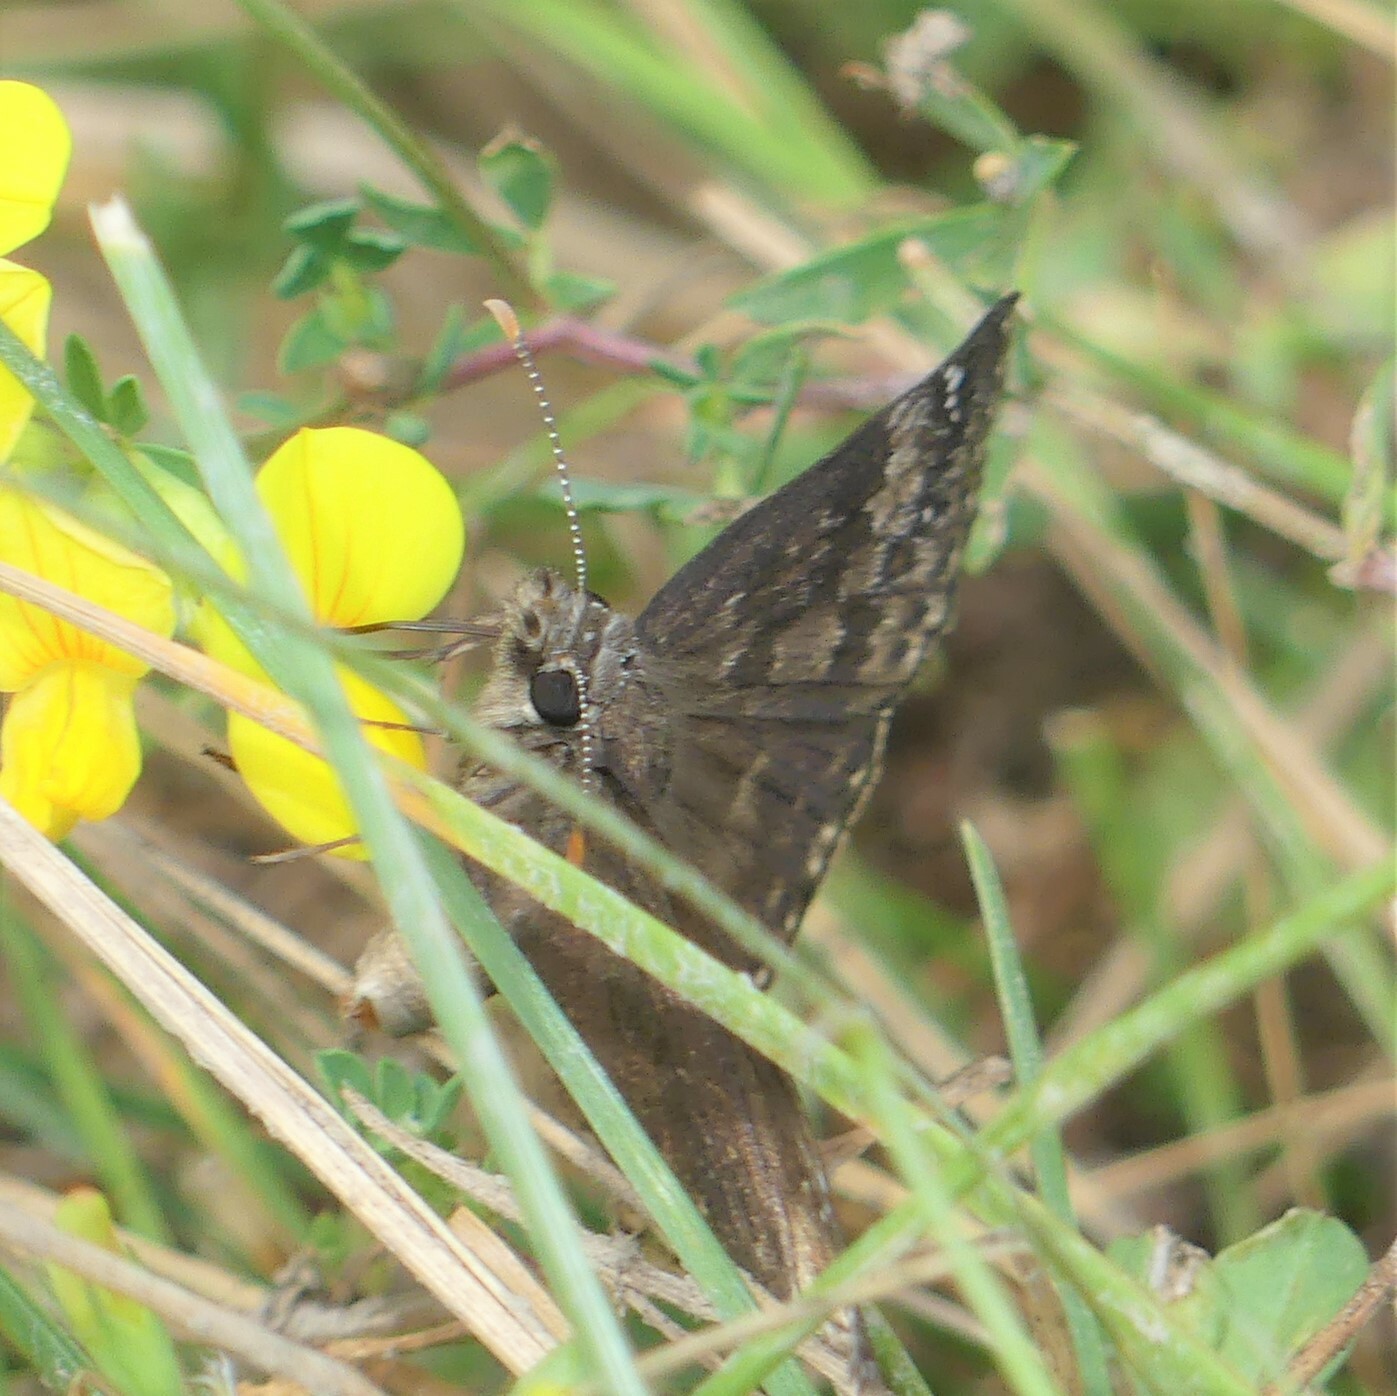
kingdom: Animalia
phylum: Arthropoda
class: Insecta
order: Lepidoptera
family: Hesperiidae
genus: Erynnis
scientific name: Erynnis baptisiae
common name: Wild indigo duskywing
